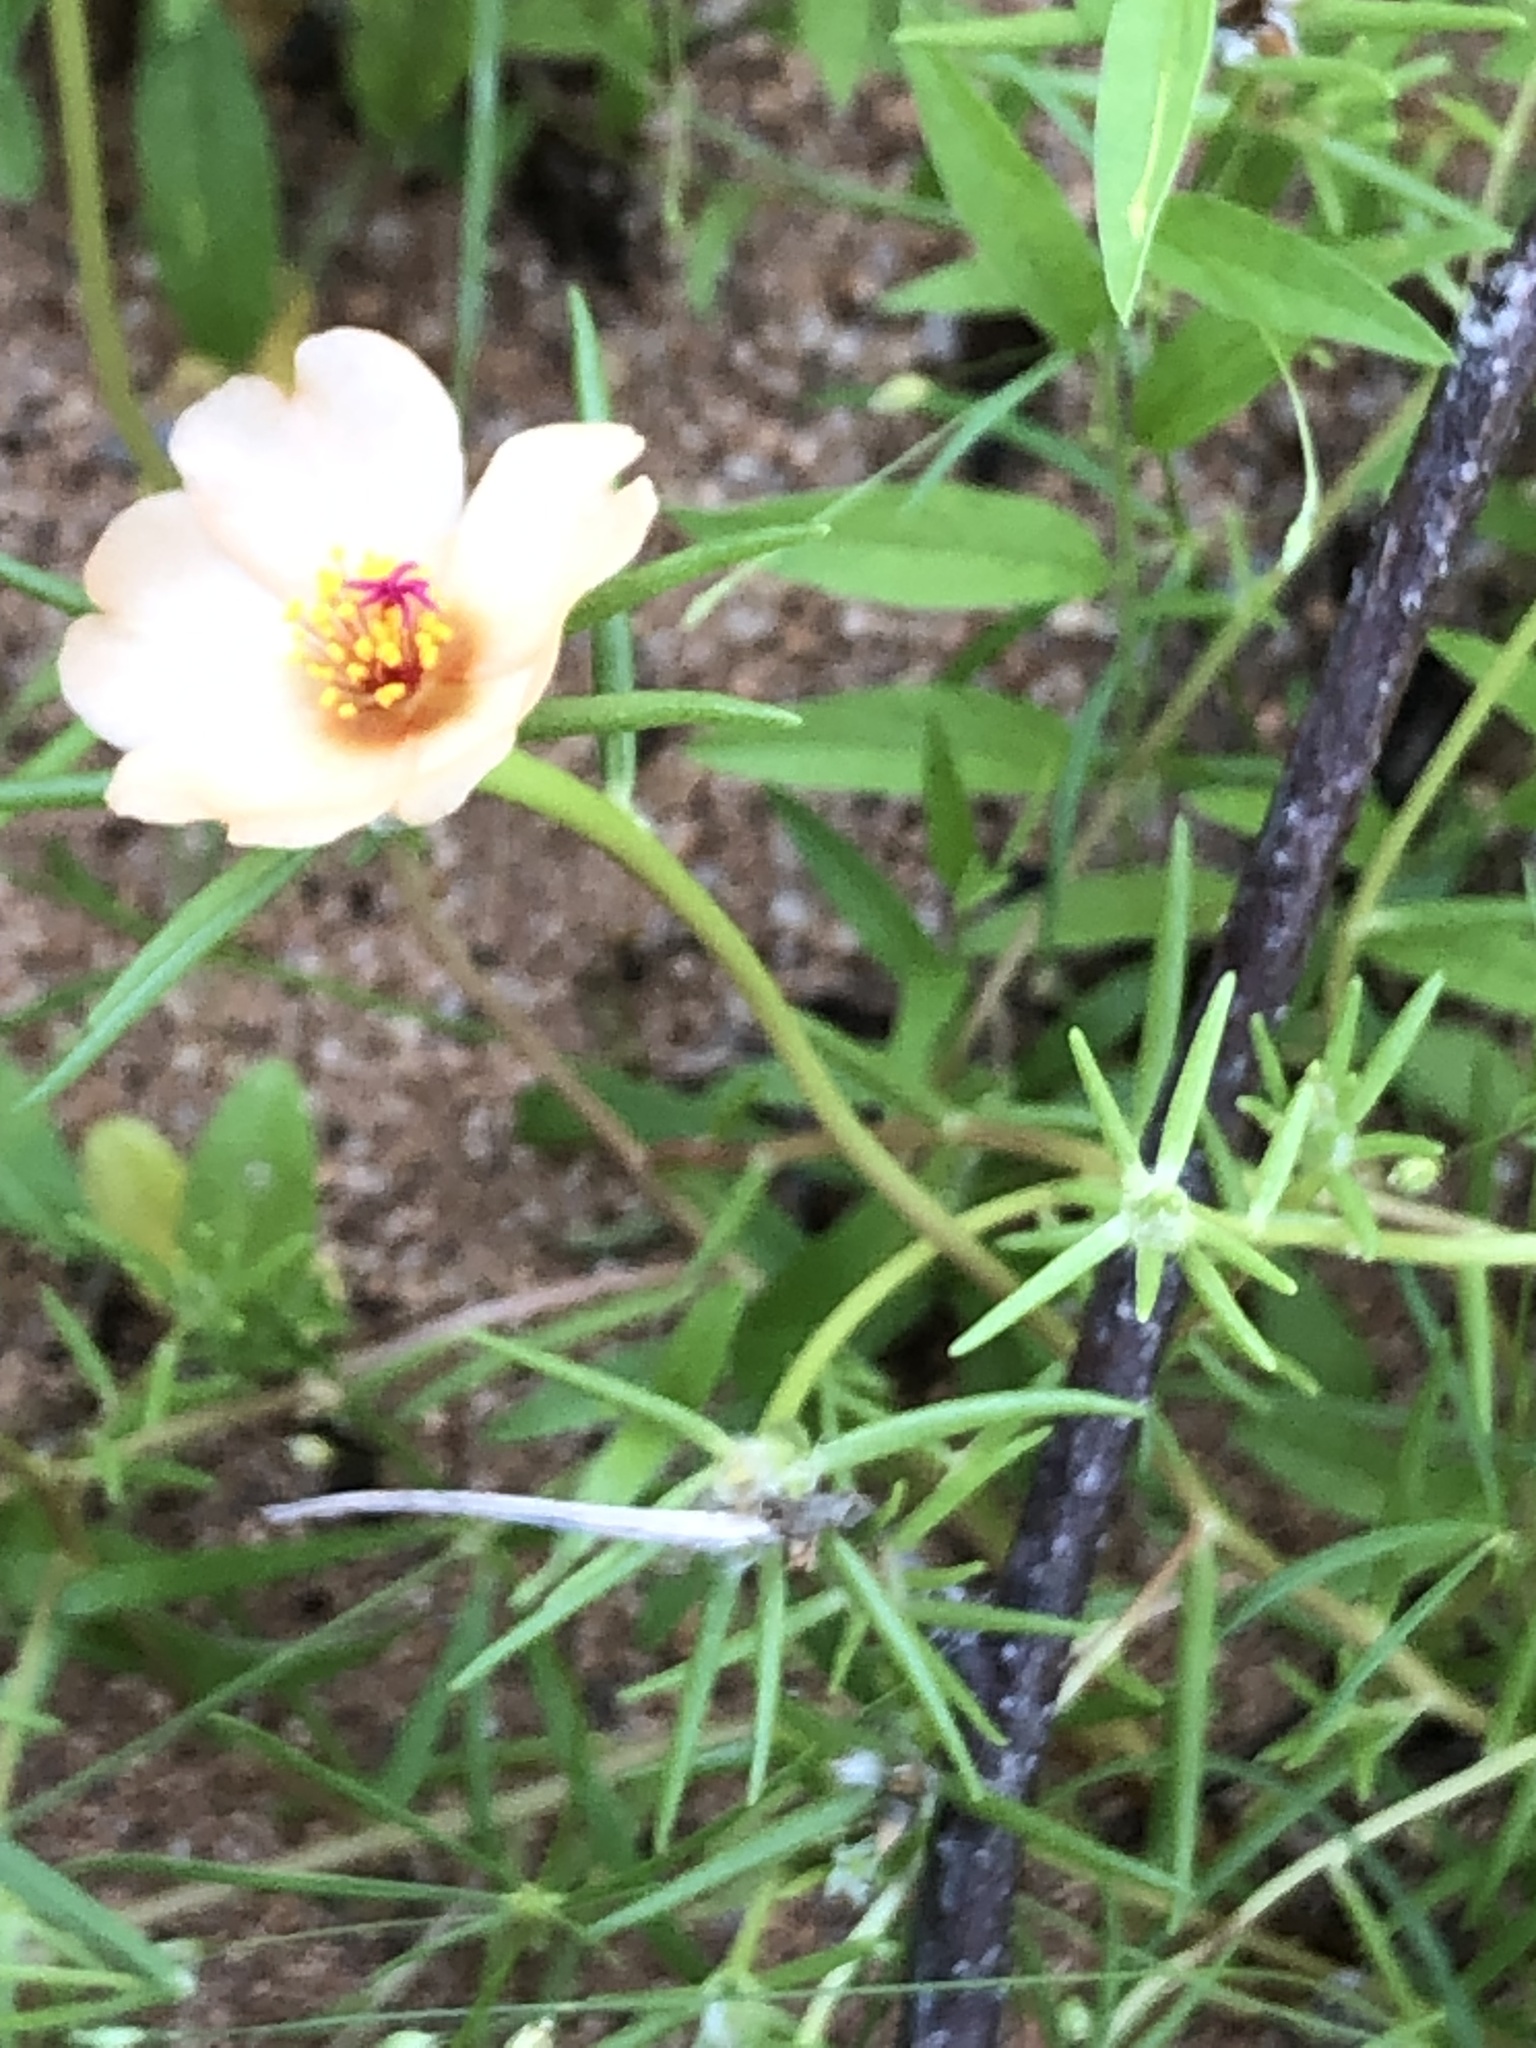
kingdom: Plantae
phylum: Tracheophyta
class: Magnoliopsida
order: Caryophyllales
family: Portulacaceae
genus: Portulaca
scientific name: Portulaca suffrutescens
